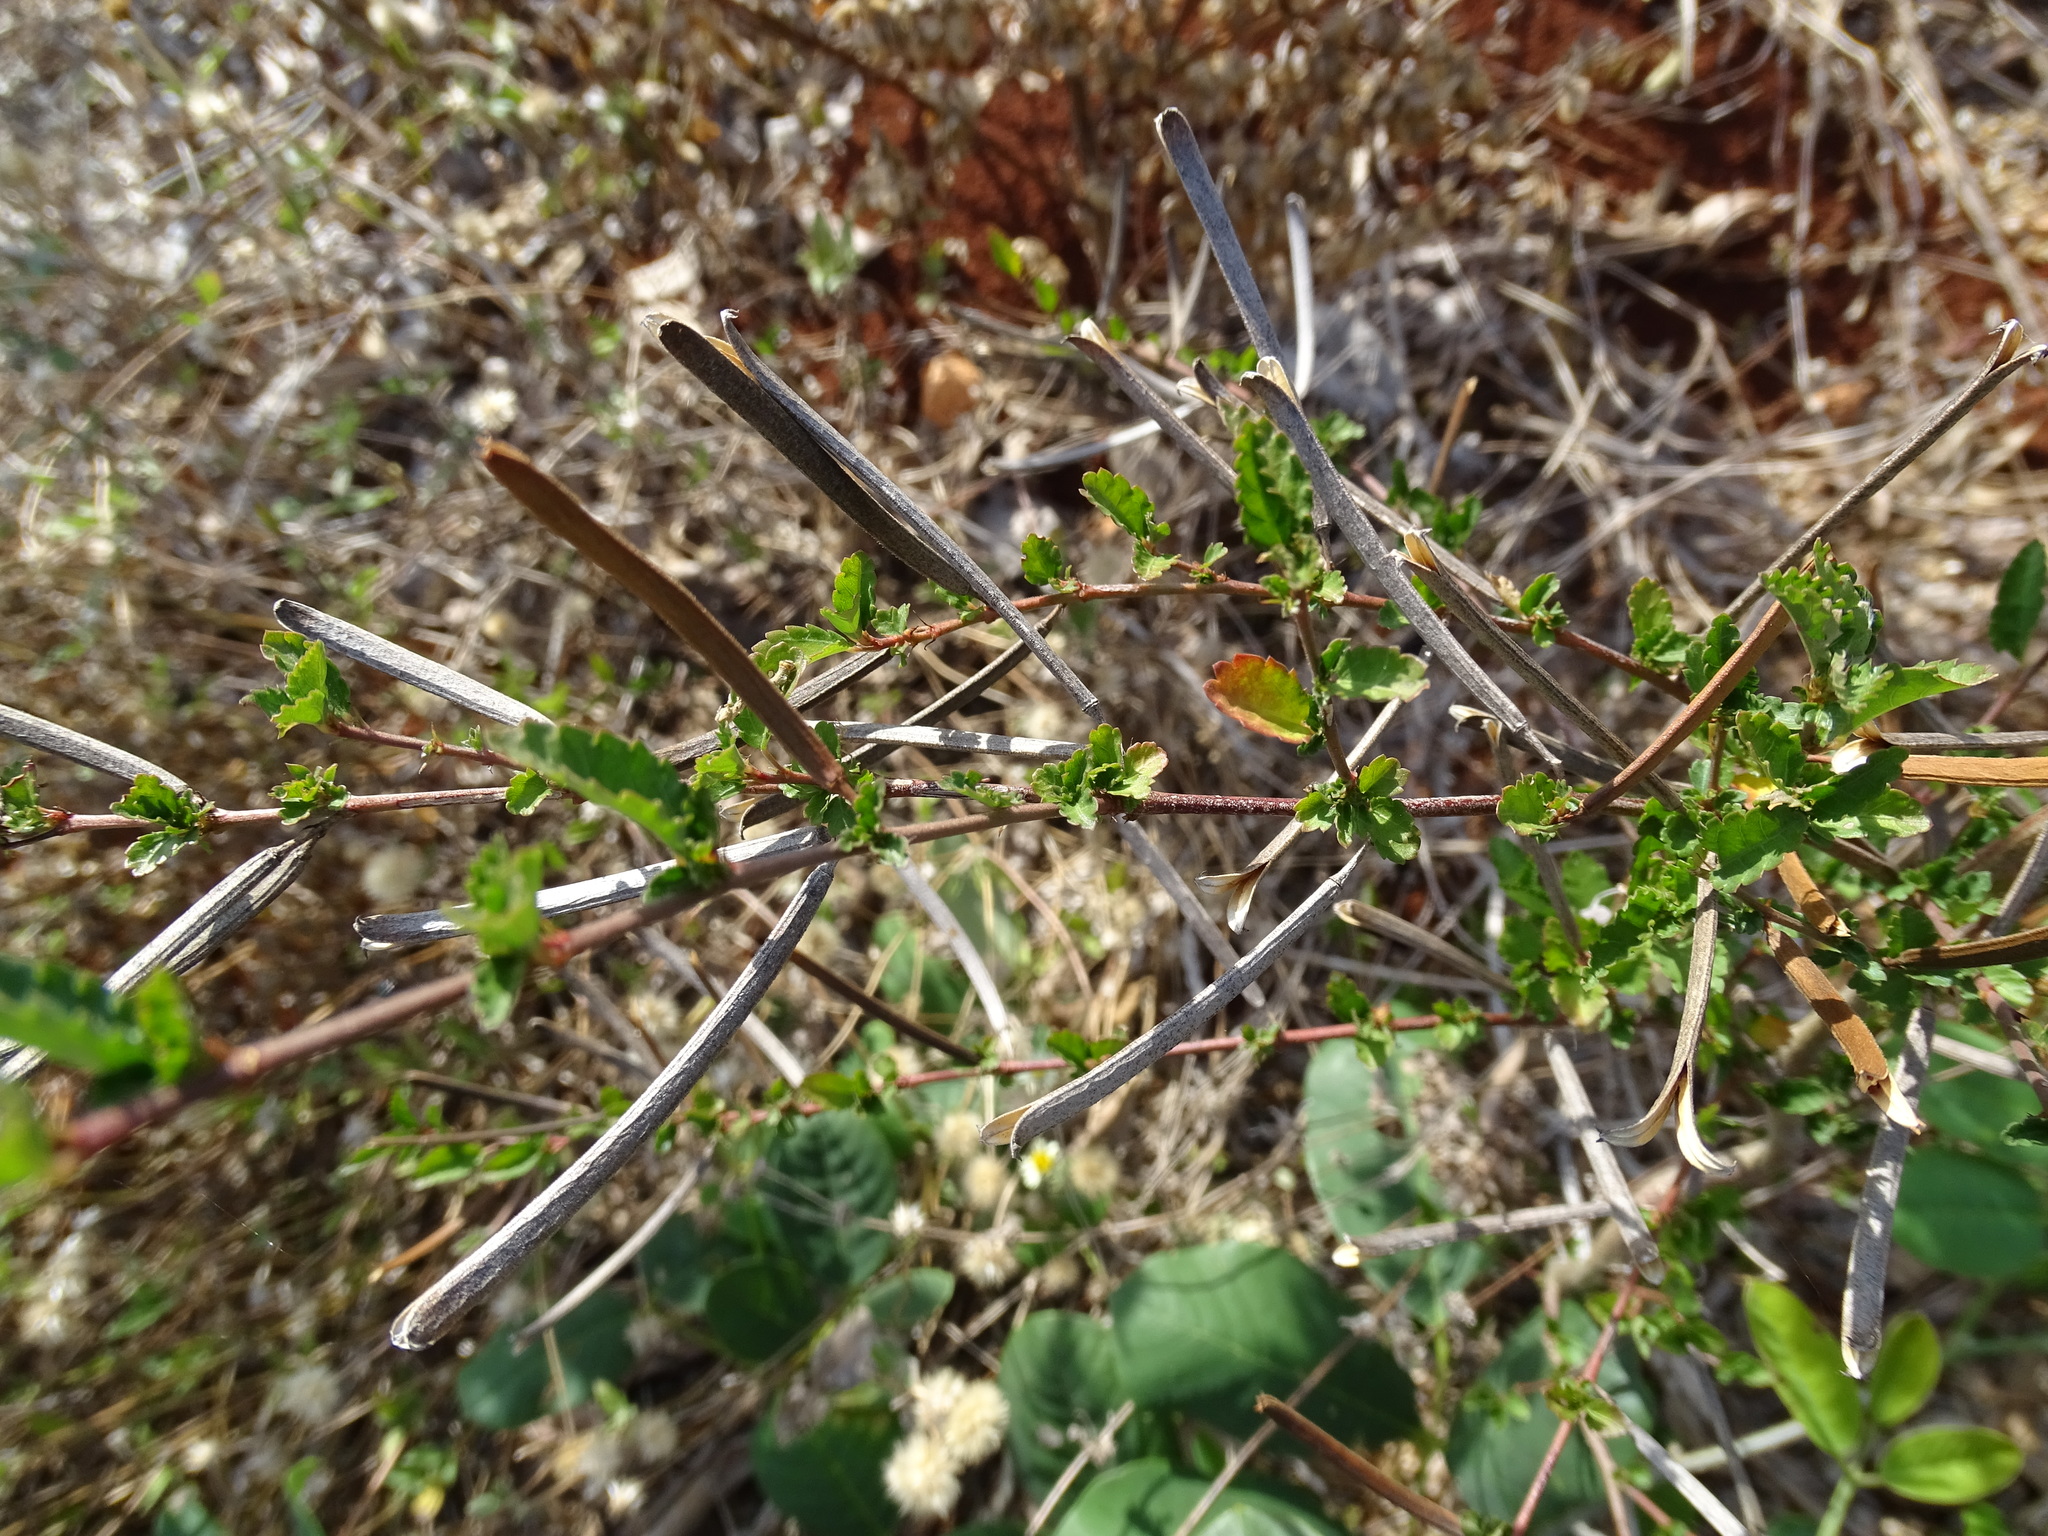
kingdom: Plantae
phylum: Tracheophyta
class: Magnoliopsida
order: Malvales
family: Malvaceae
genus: Corchorus
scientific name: Corchorus siliquosus
